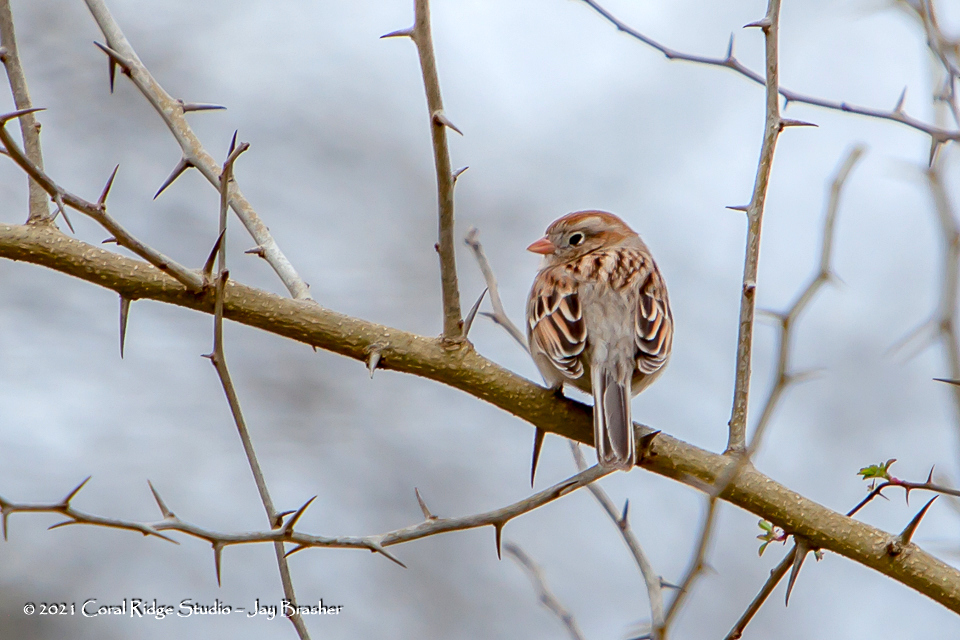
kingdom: Animalia
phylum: Chordata
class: Aves
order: Passeriformes
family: Passerellidae
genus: Spizella
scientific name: Spizella pusilla
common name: Field sparrow
